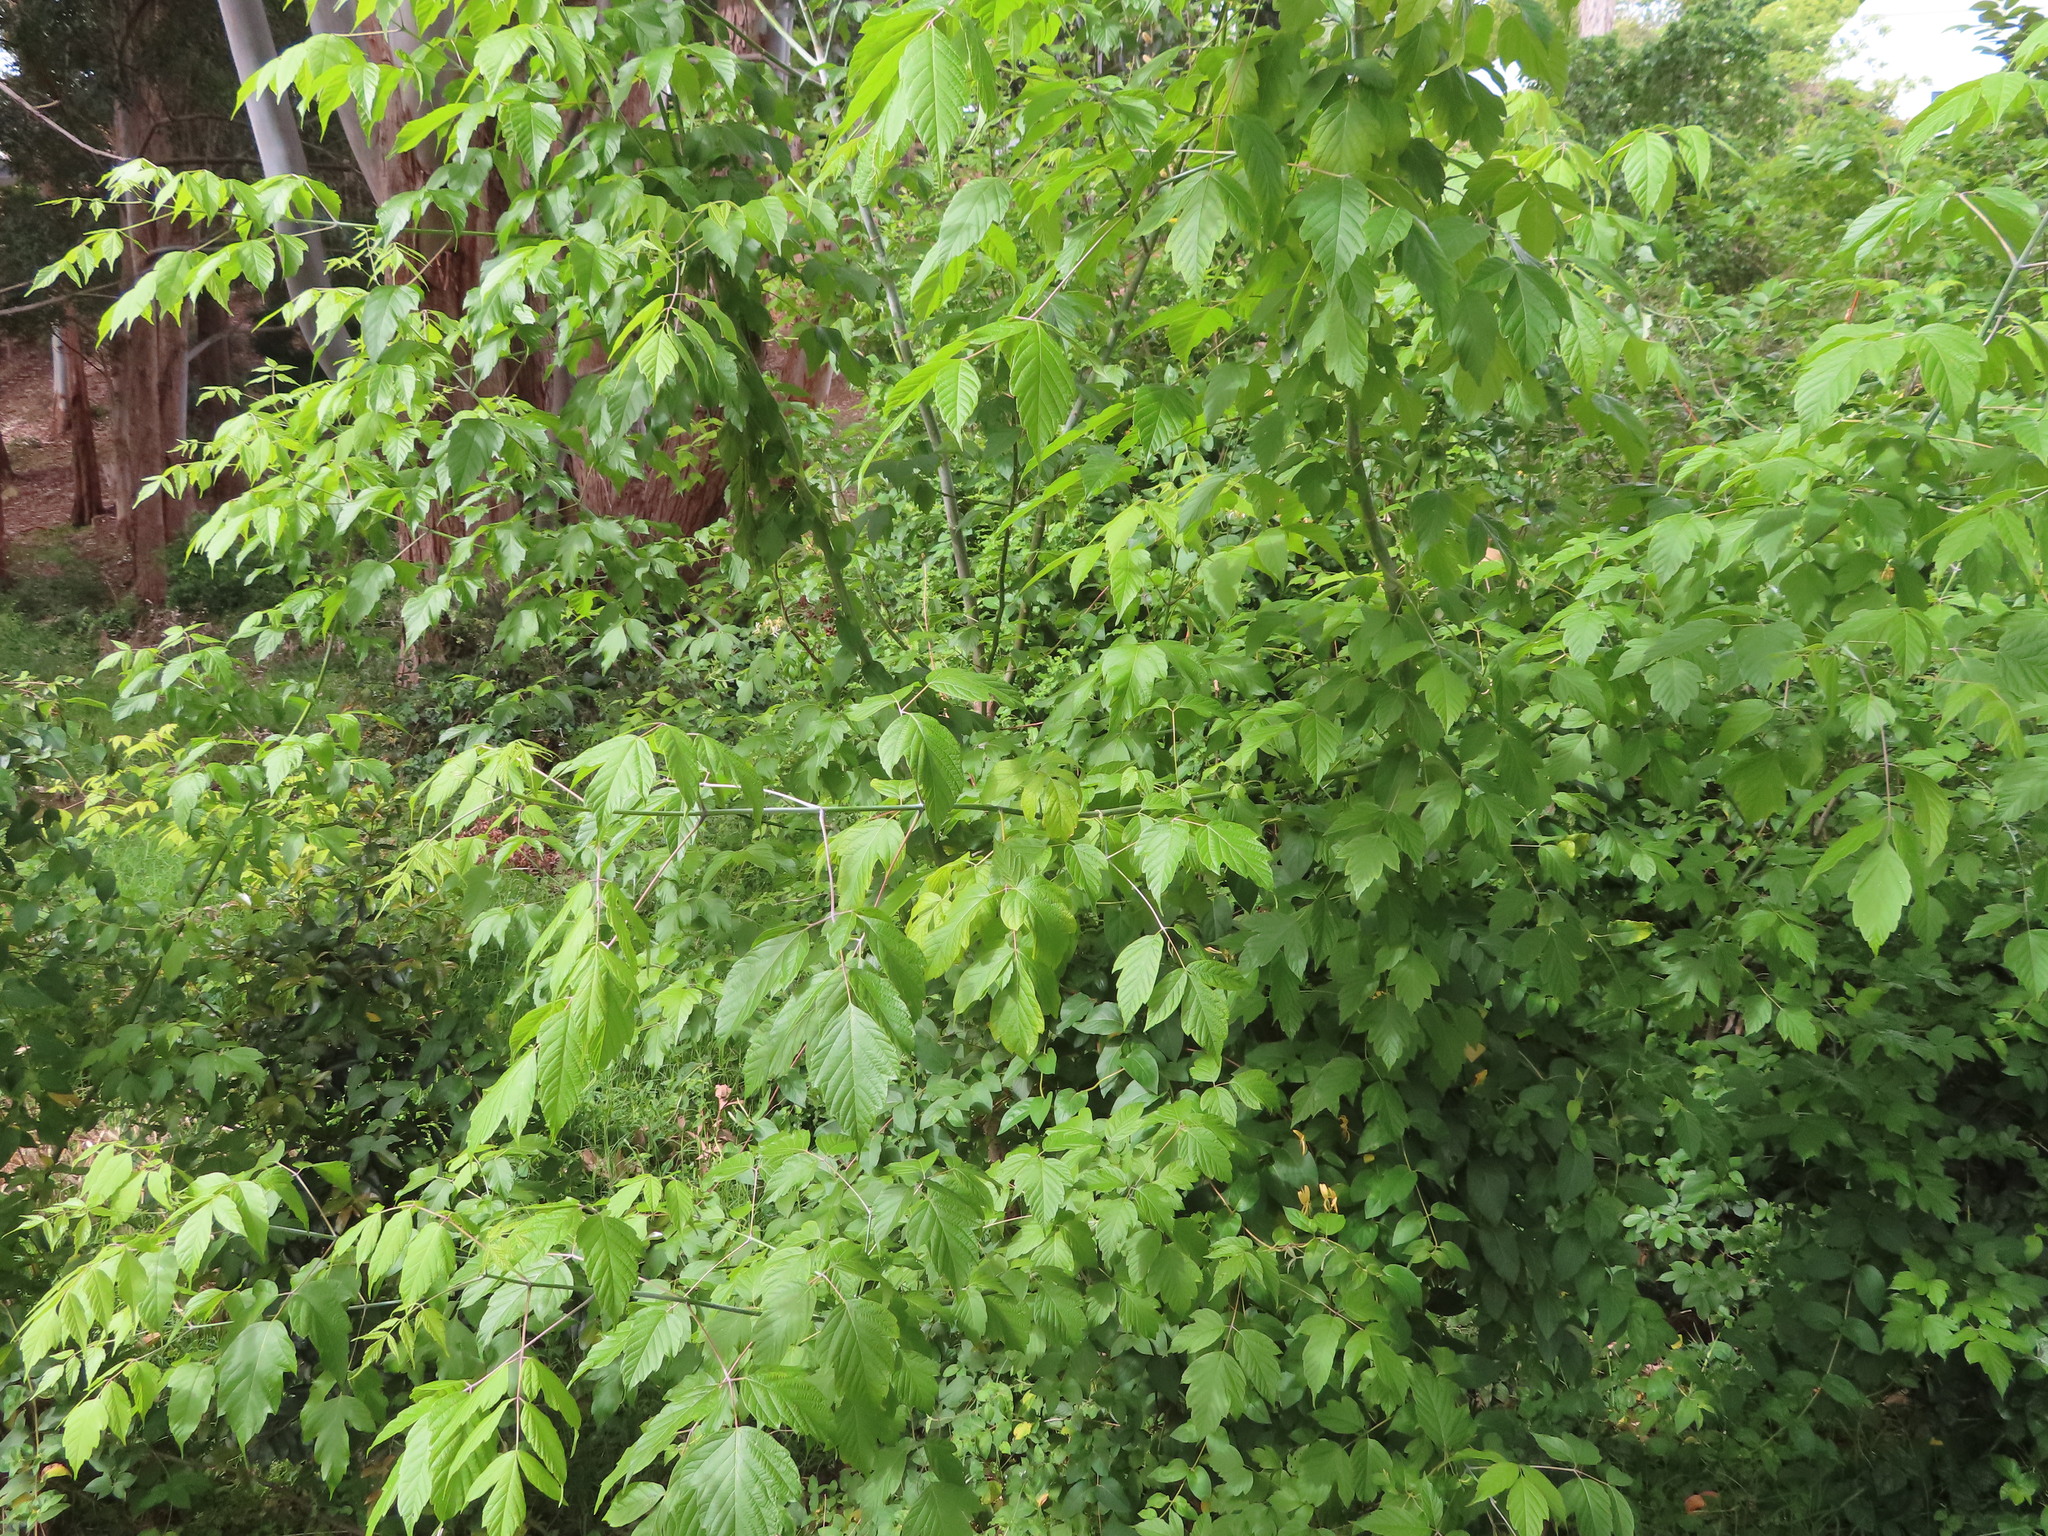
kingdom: Plantae
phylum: Tracheophyta
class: Magnoliopsida
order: Sapindales
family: Sapindaceae
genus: Acer
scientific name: Acer negundo
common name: Ashleaf maple
